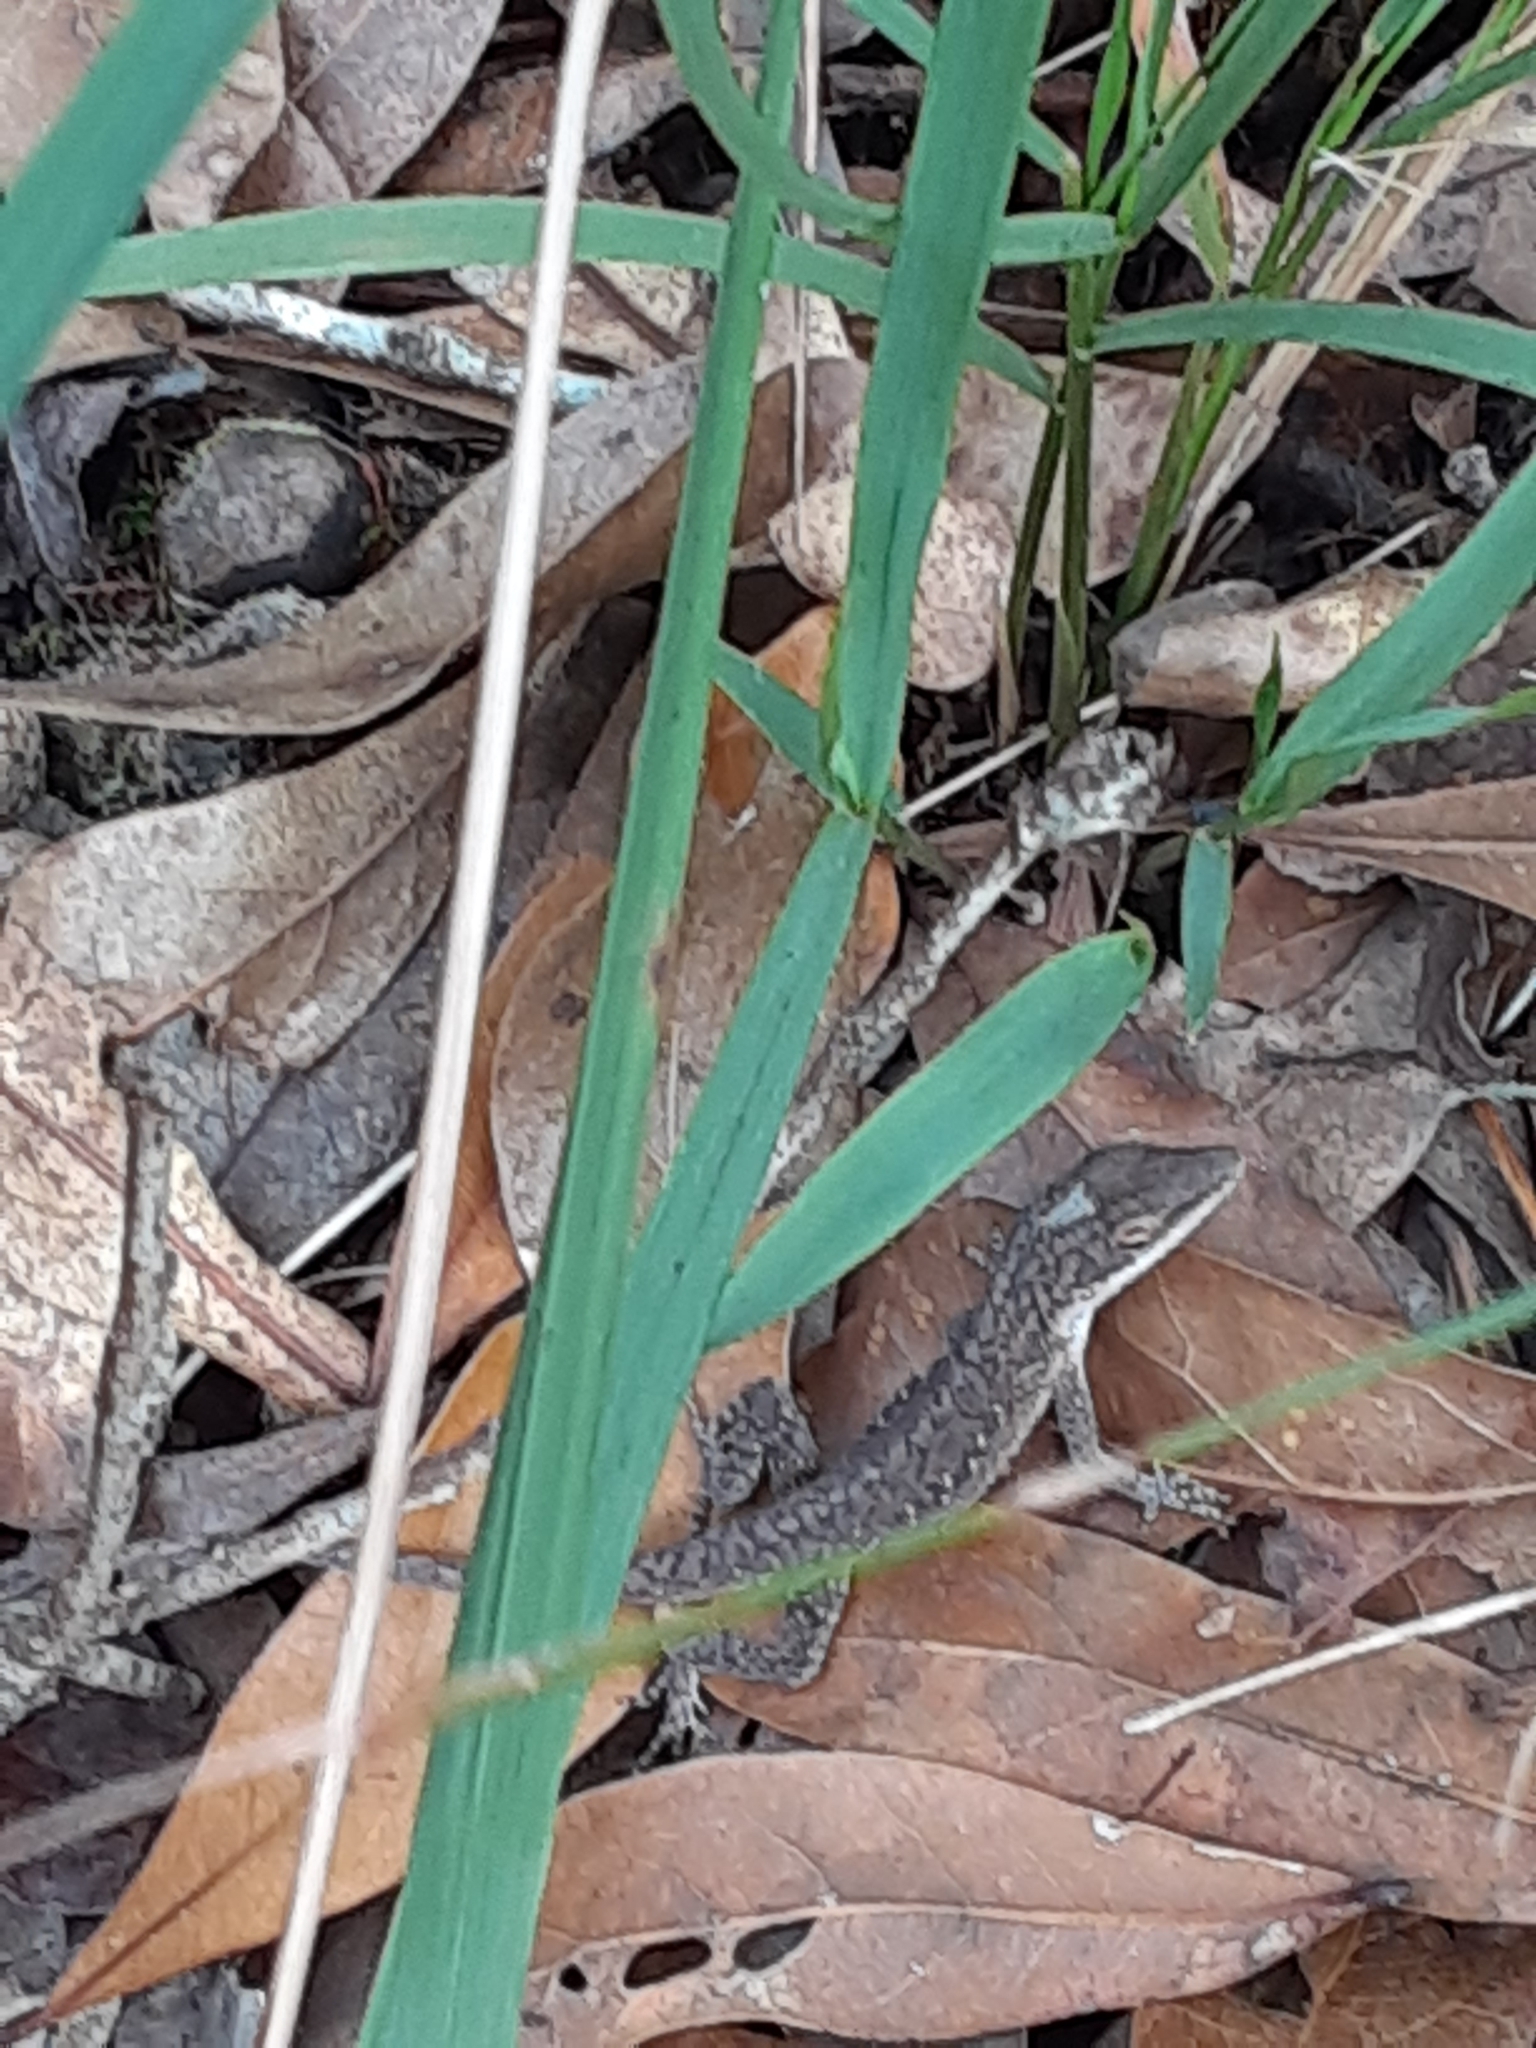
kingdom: Animalia
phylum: Chordata
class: Squamata
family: Dactyloidae
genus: Anolis
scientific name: Anolis carolinensis
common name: Green anole
